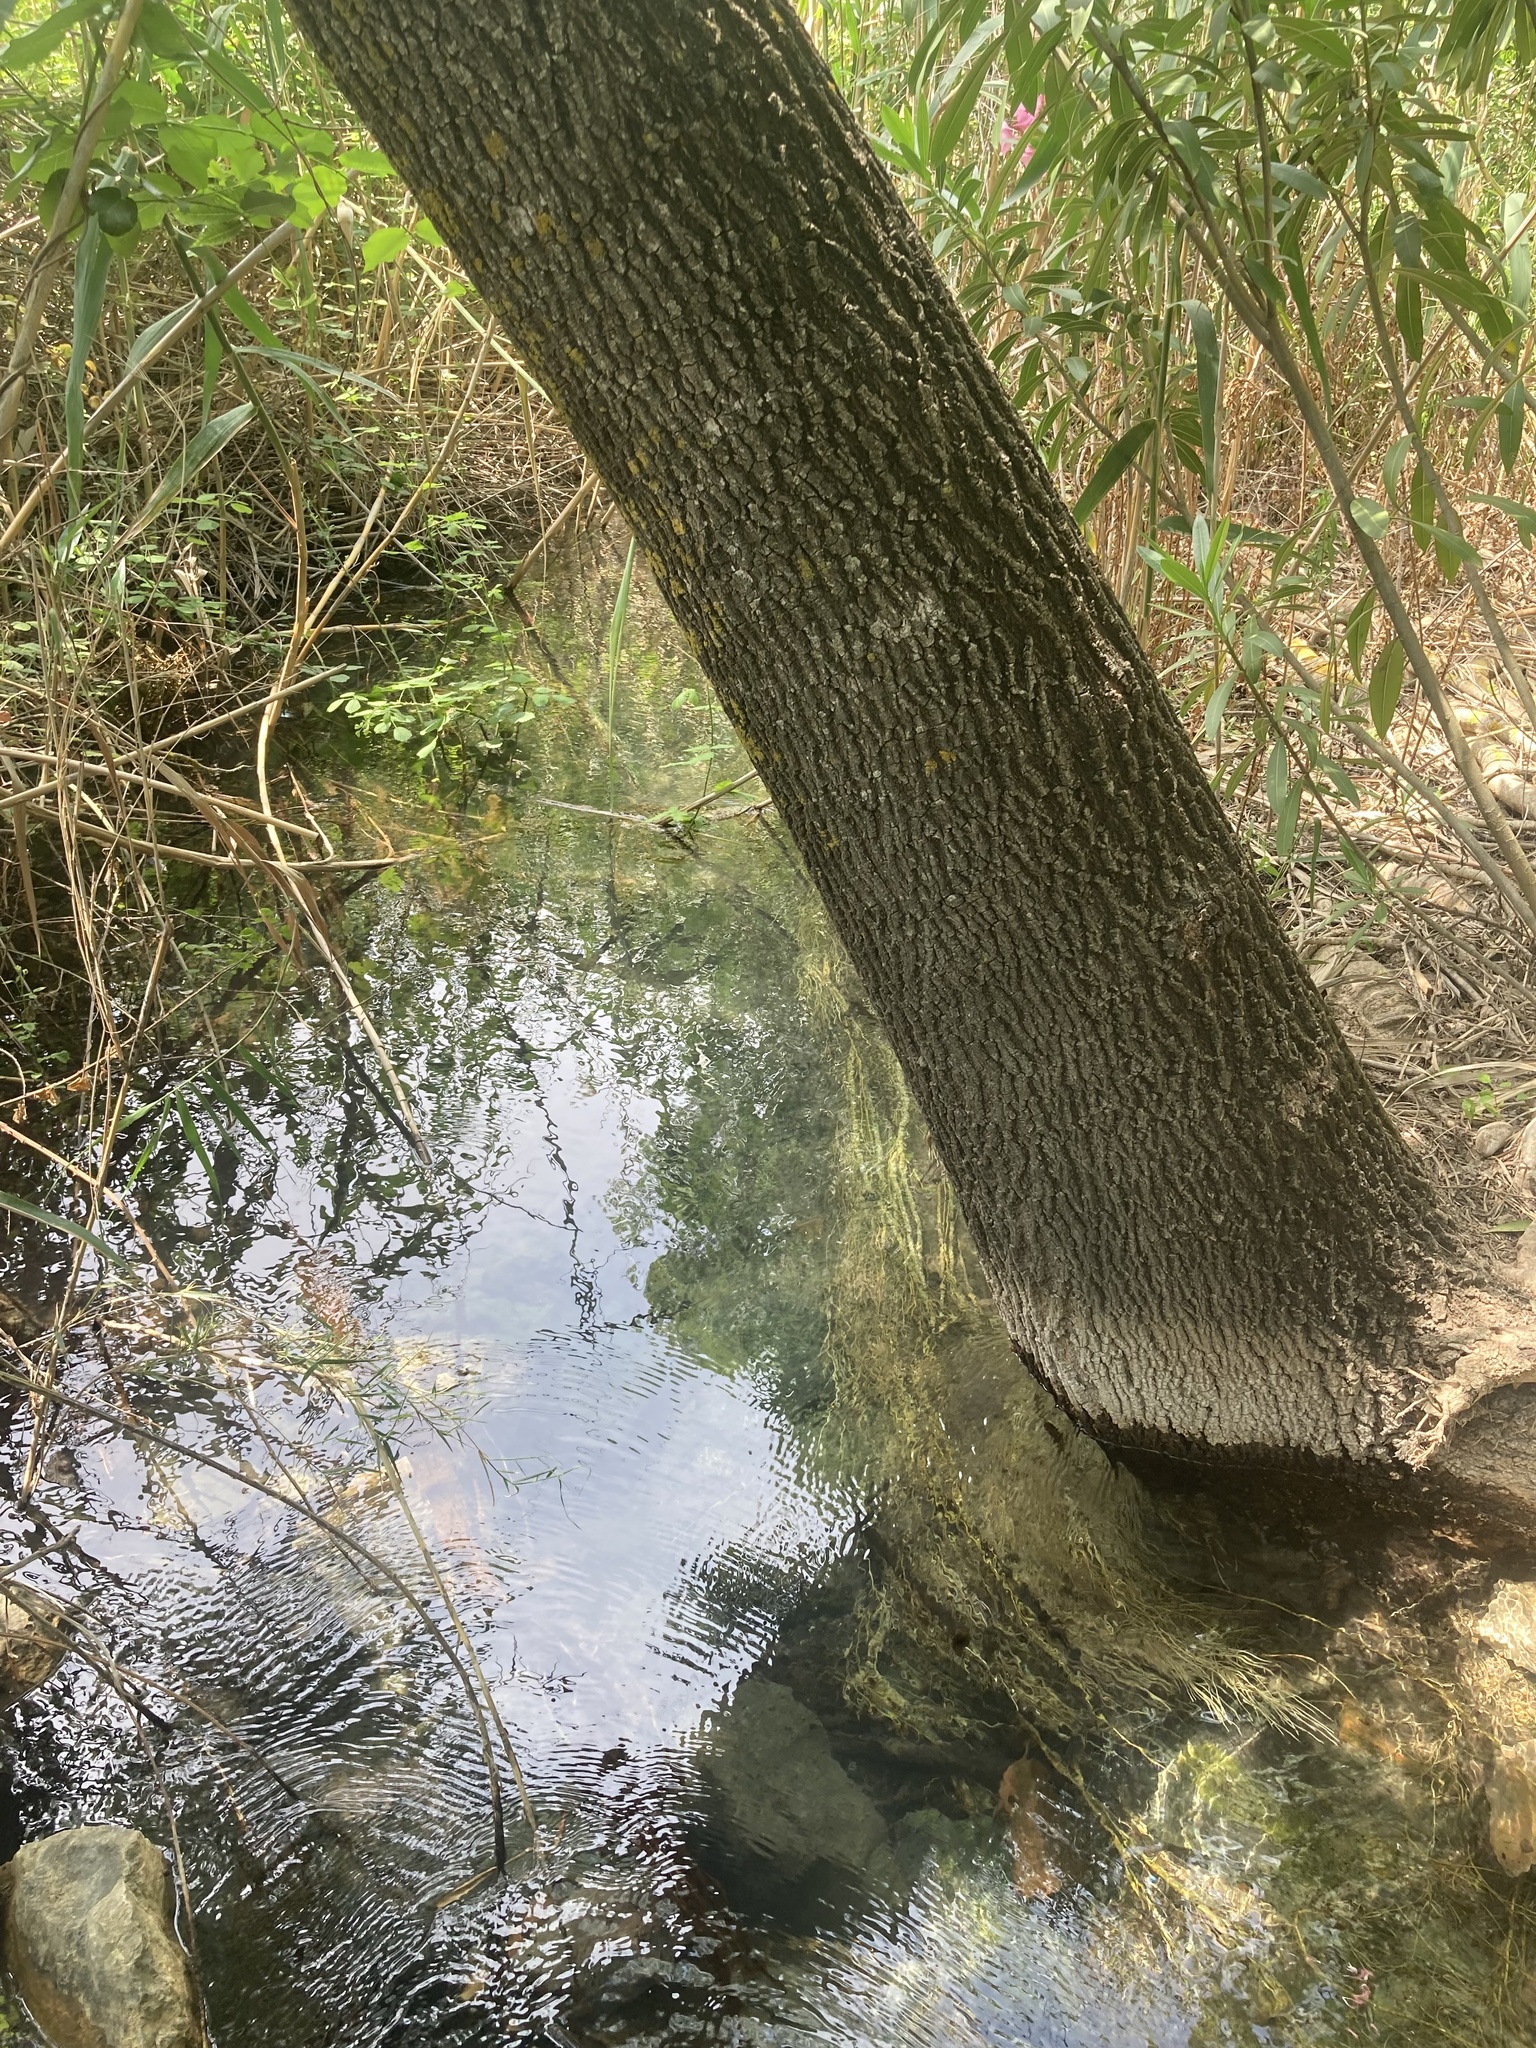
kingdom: Plantae
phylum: Tracheophyta
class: Magnoliopsida
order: Lamiales
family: Oleaceae
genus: Fraxinus
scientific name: Fraxinus angustifolia
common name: Narrow-leafed ash
